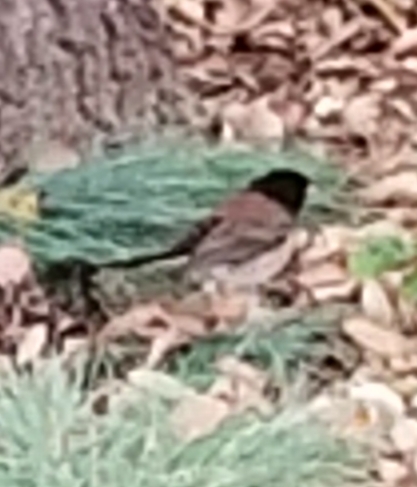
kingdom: Animalia
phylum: Chordata
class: Aves
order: Passeriformes
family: Passerellidae
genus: Junco
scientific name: Junco hyemalis
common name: Dark-eyed junco
